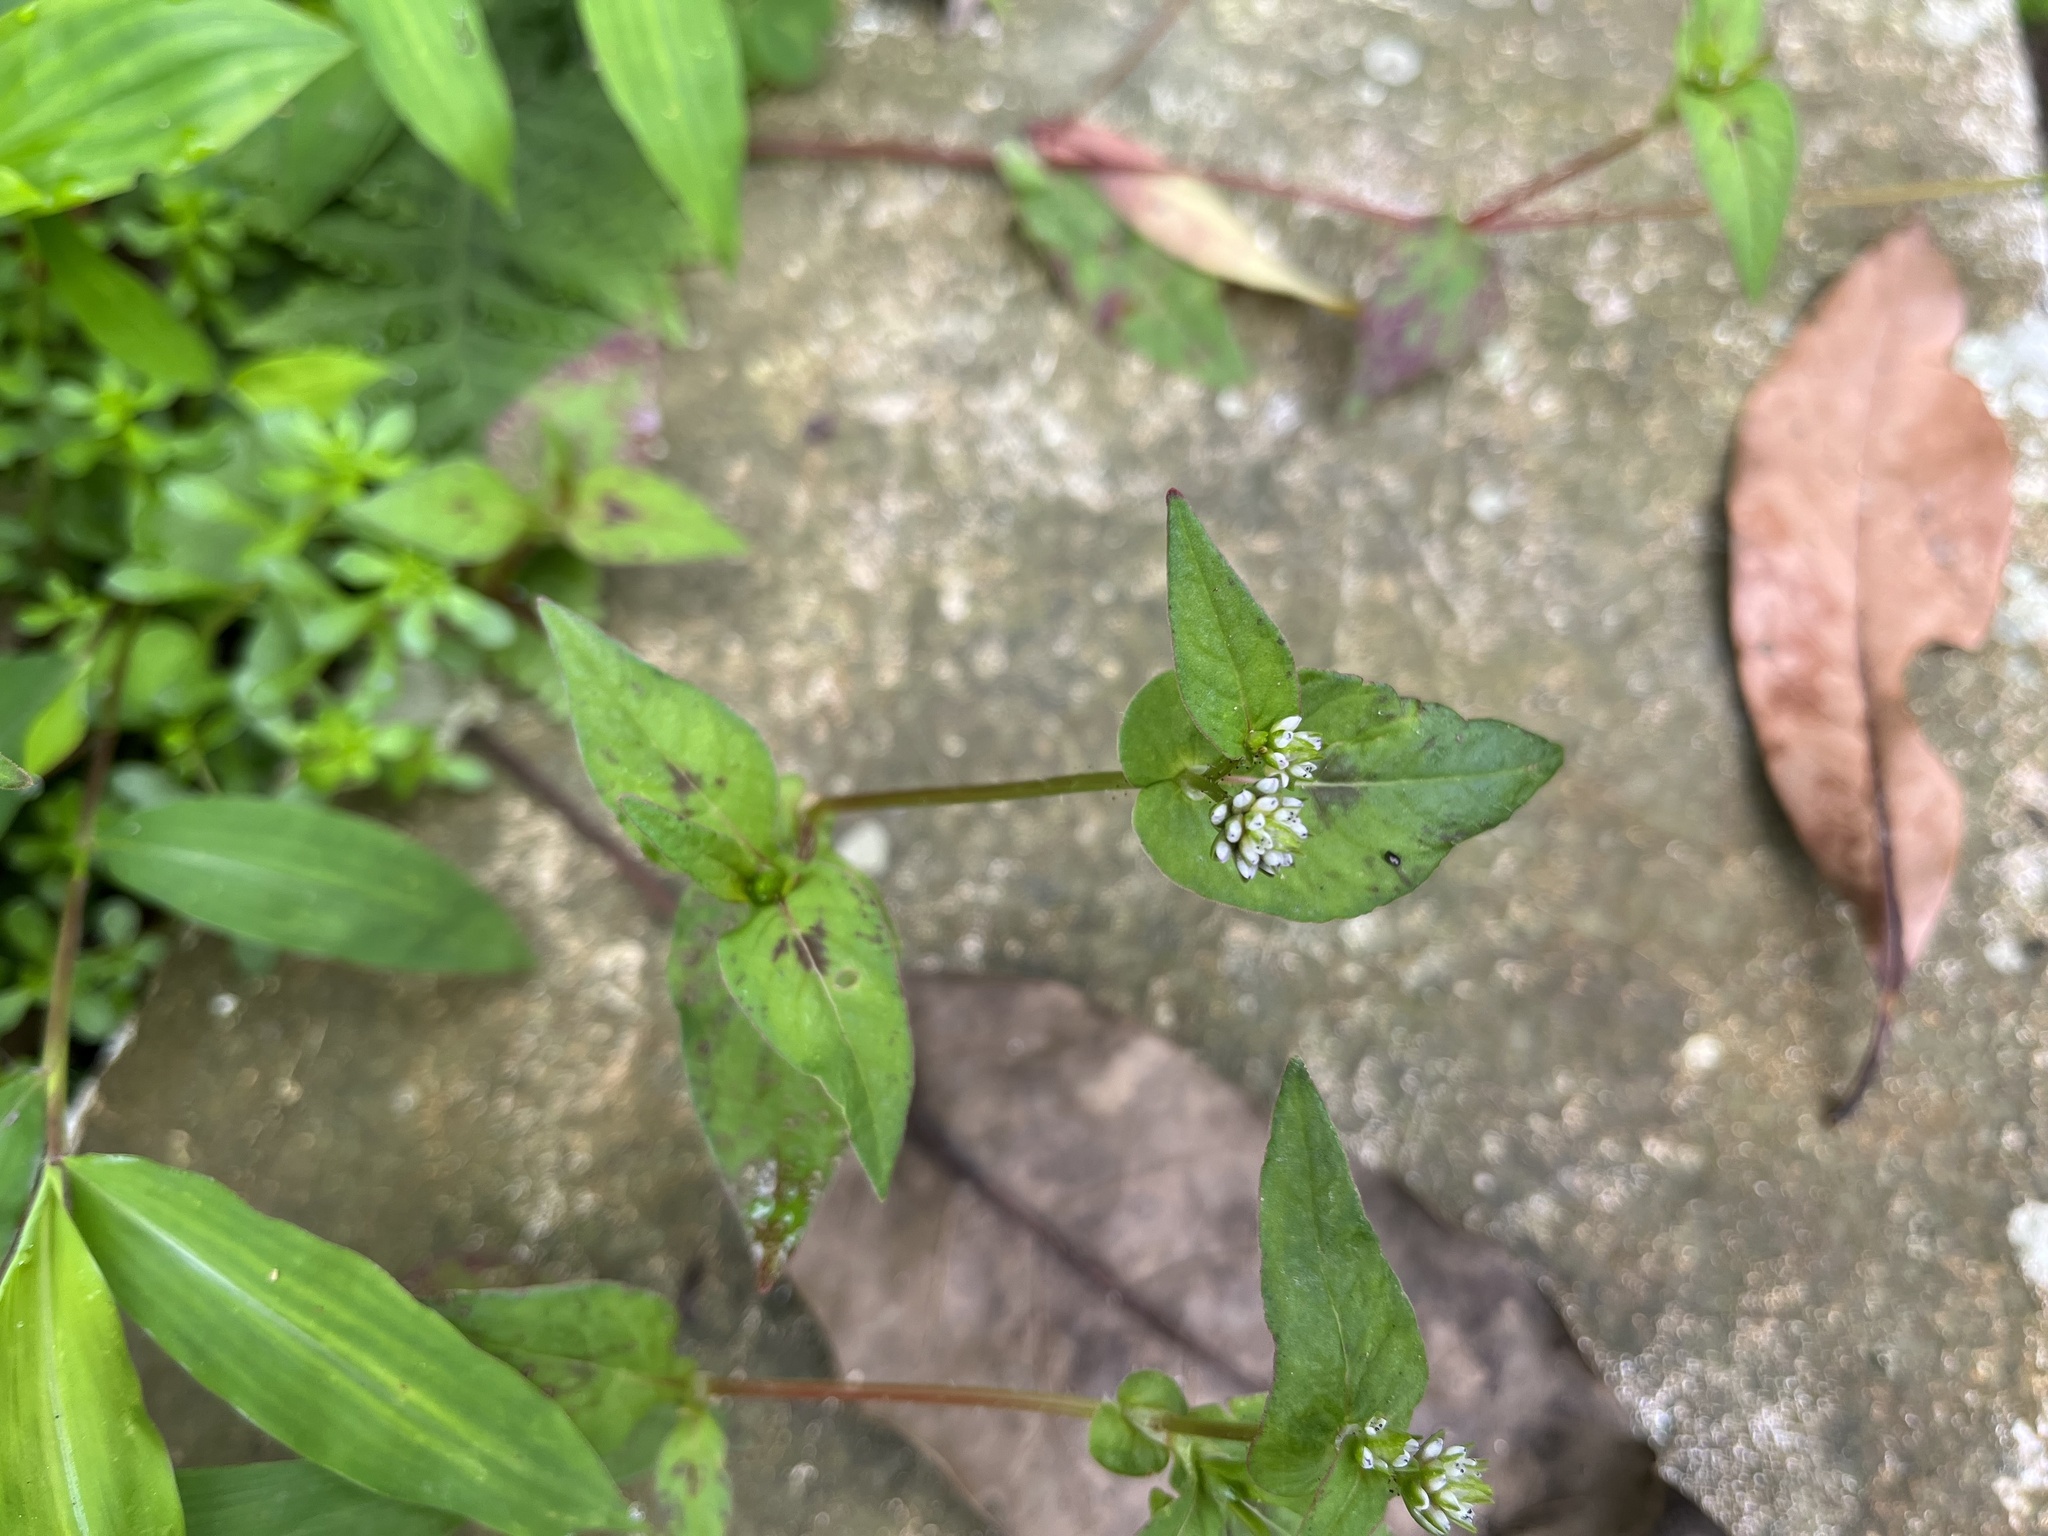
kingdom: Plantae
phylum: Tracheophyta
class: Magnoliopsida
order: Caryophyllales
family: Polygonaceae
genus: Persicaria
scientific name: Persicaria nepalensis
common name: Nepal persicaria
